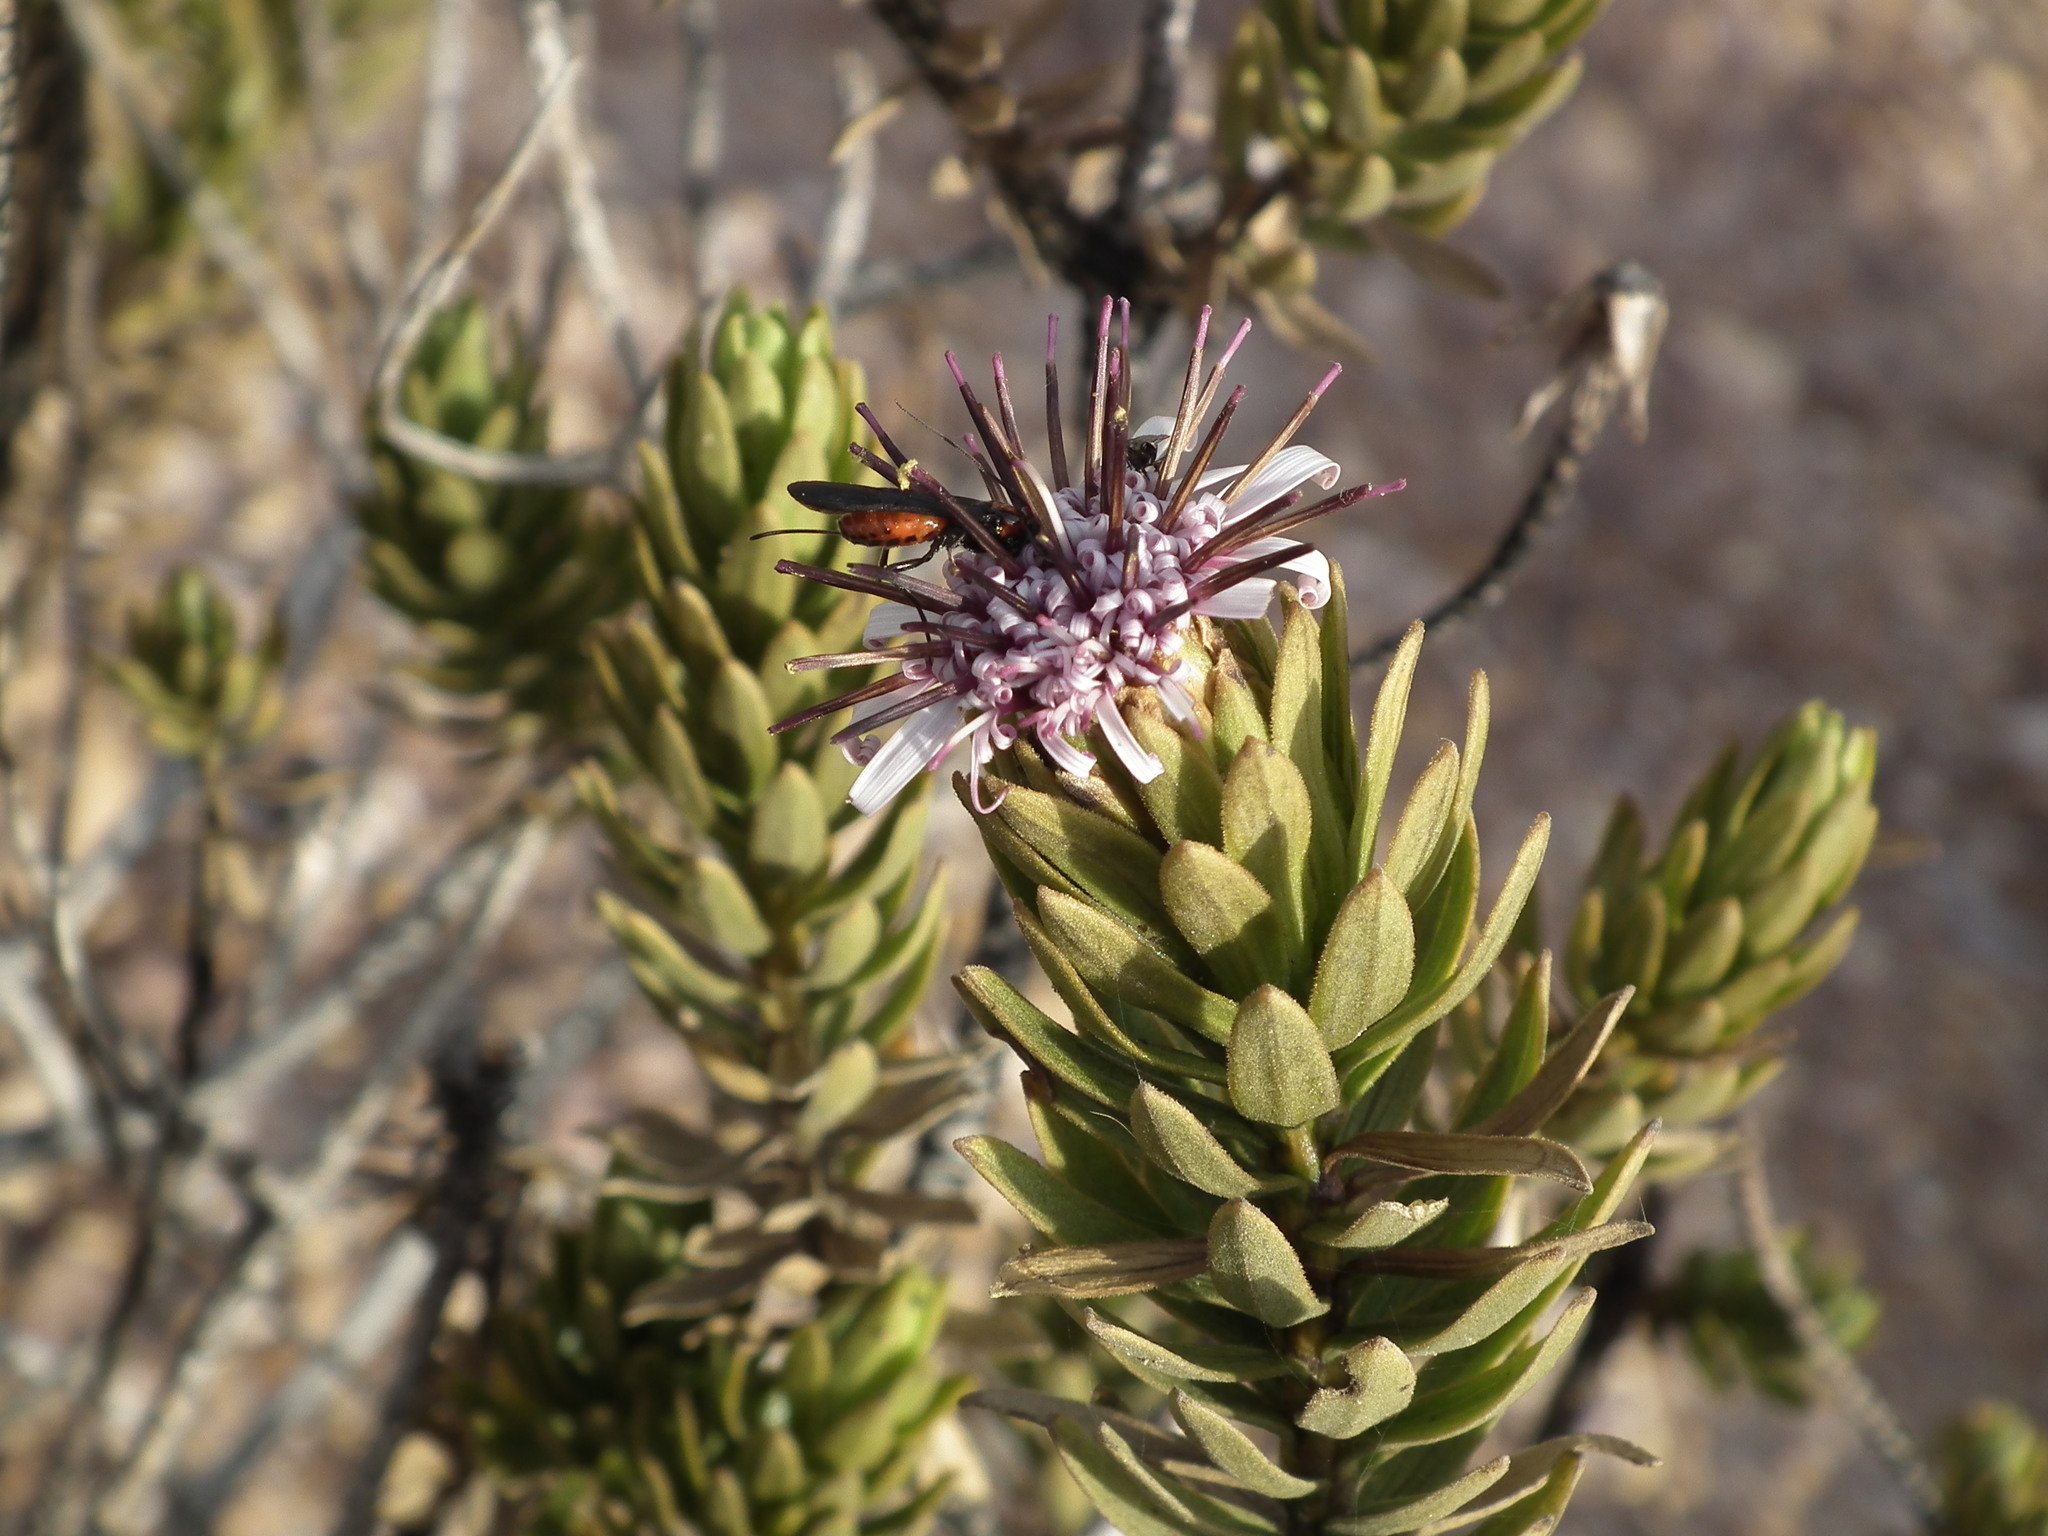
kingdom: Plantae
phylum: Tracheophyta
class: Magnoliopsida
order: Asterales
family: Asteraceae
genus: Plazia
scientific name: Plazia daphnoides
